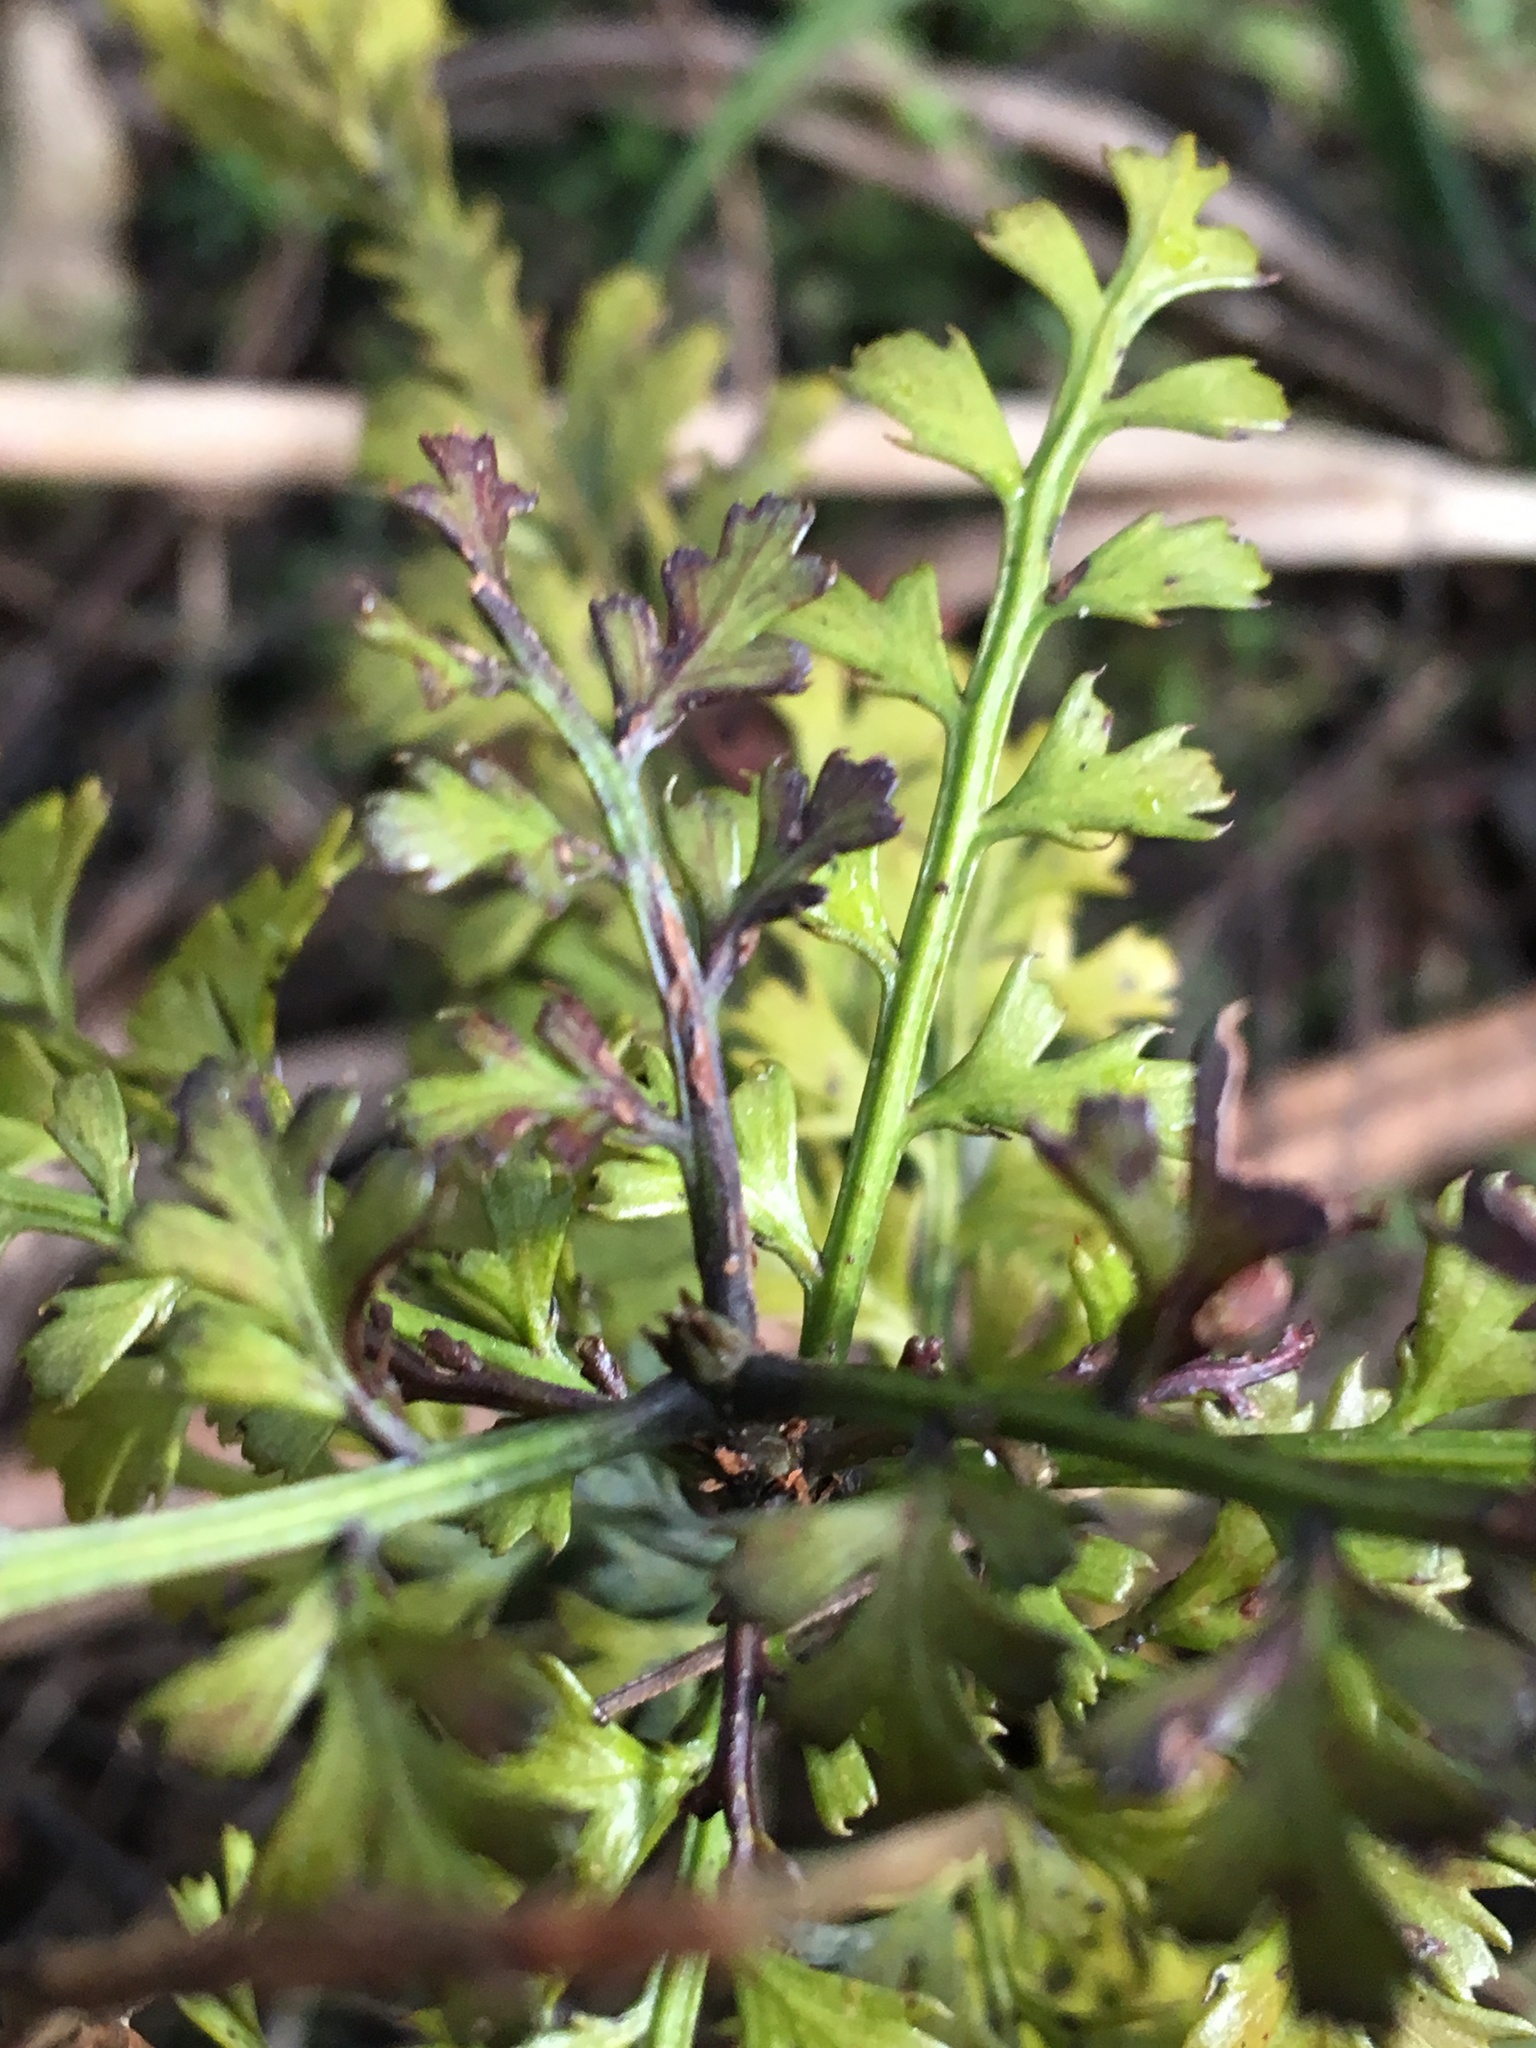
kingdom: Plantae
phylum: Tracheophyta
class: Pinopsida
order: Pinales
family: Phyllocladaceae
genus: Phyllocladus
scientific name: Phyllocladus trichomanoides
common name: Celery pine
